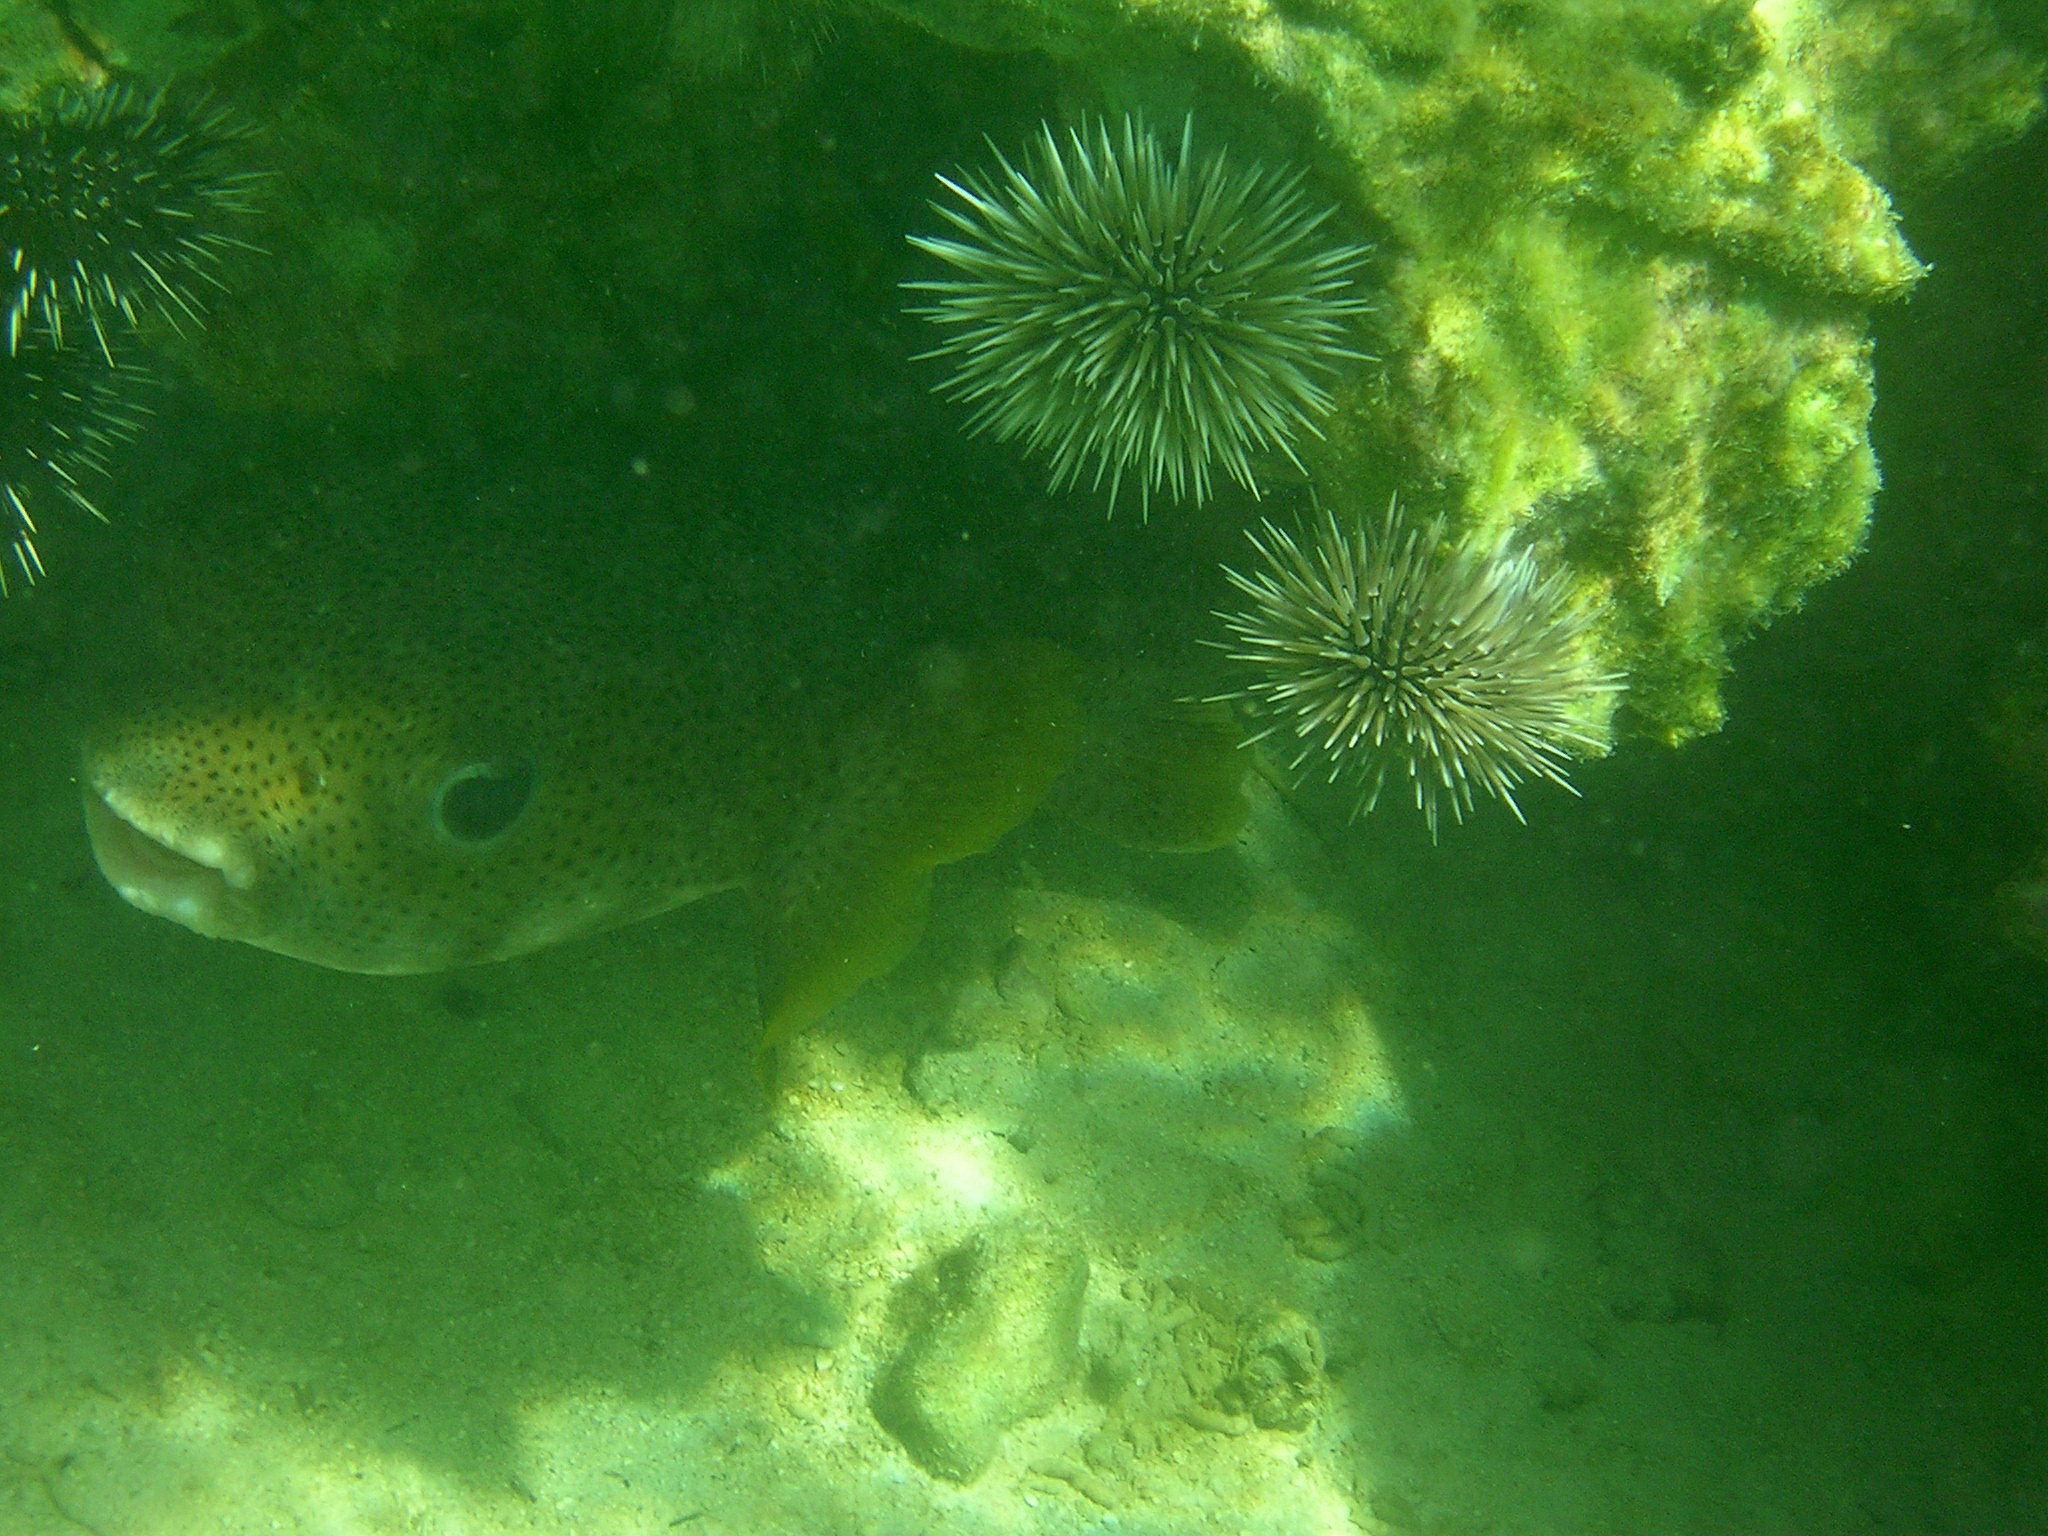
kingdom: Animalia
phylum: Chordata
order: Tetraodontiformes
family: Diodontidae
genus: Diodon
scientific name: Diodon hystrix
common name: Giant porcupinefish
